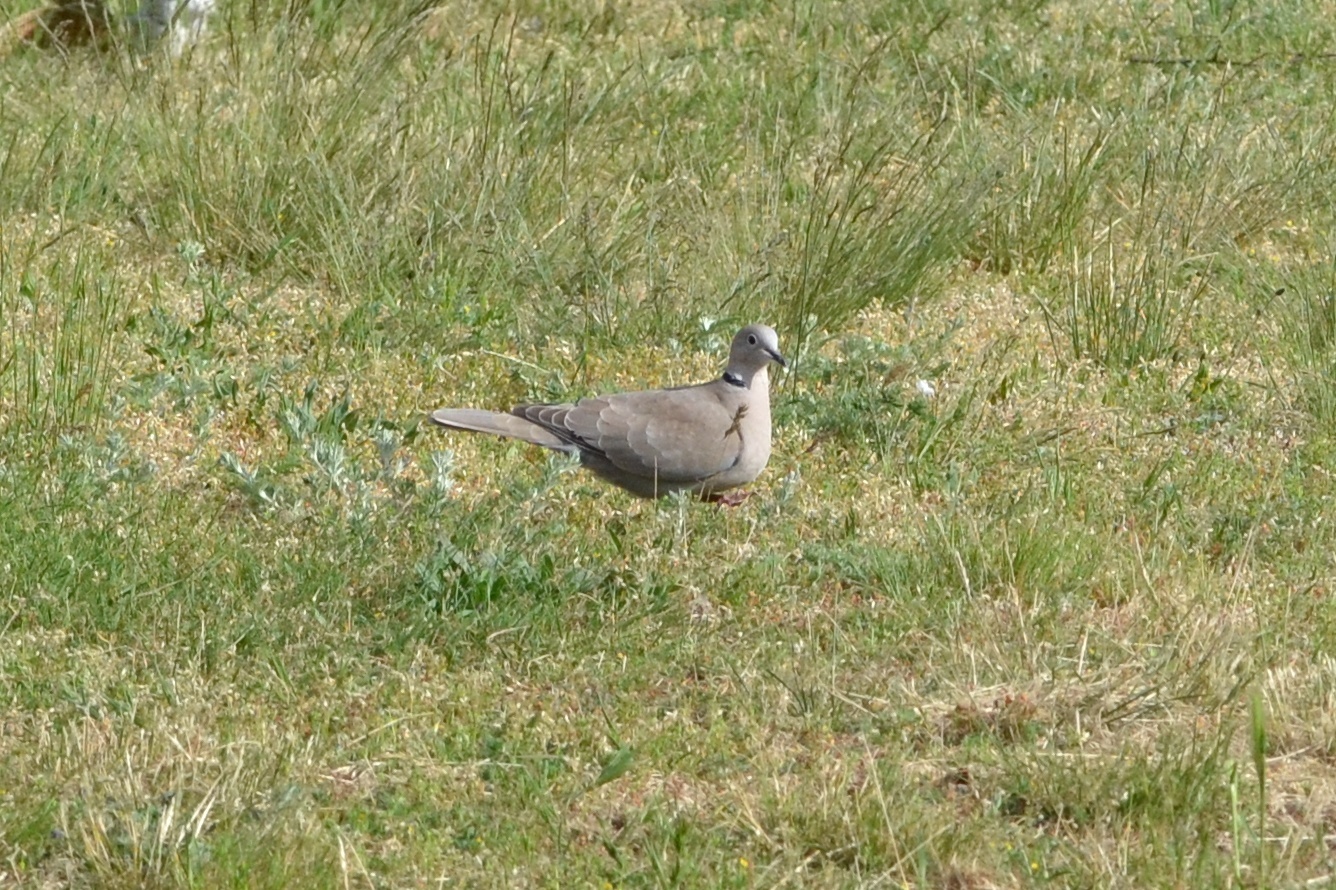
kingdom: Animalia
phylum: Chordata
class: Aves
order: Columbiformes
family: Columbidae
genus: Streptopelia
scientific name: Streptopelia decaocto
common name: Eurasian collared dove
